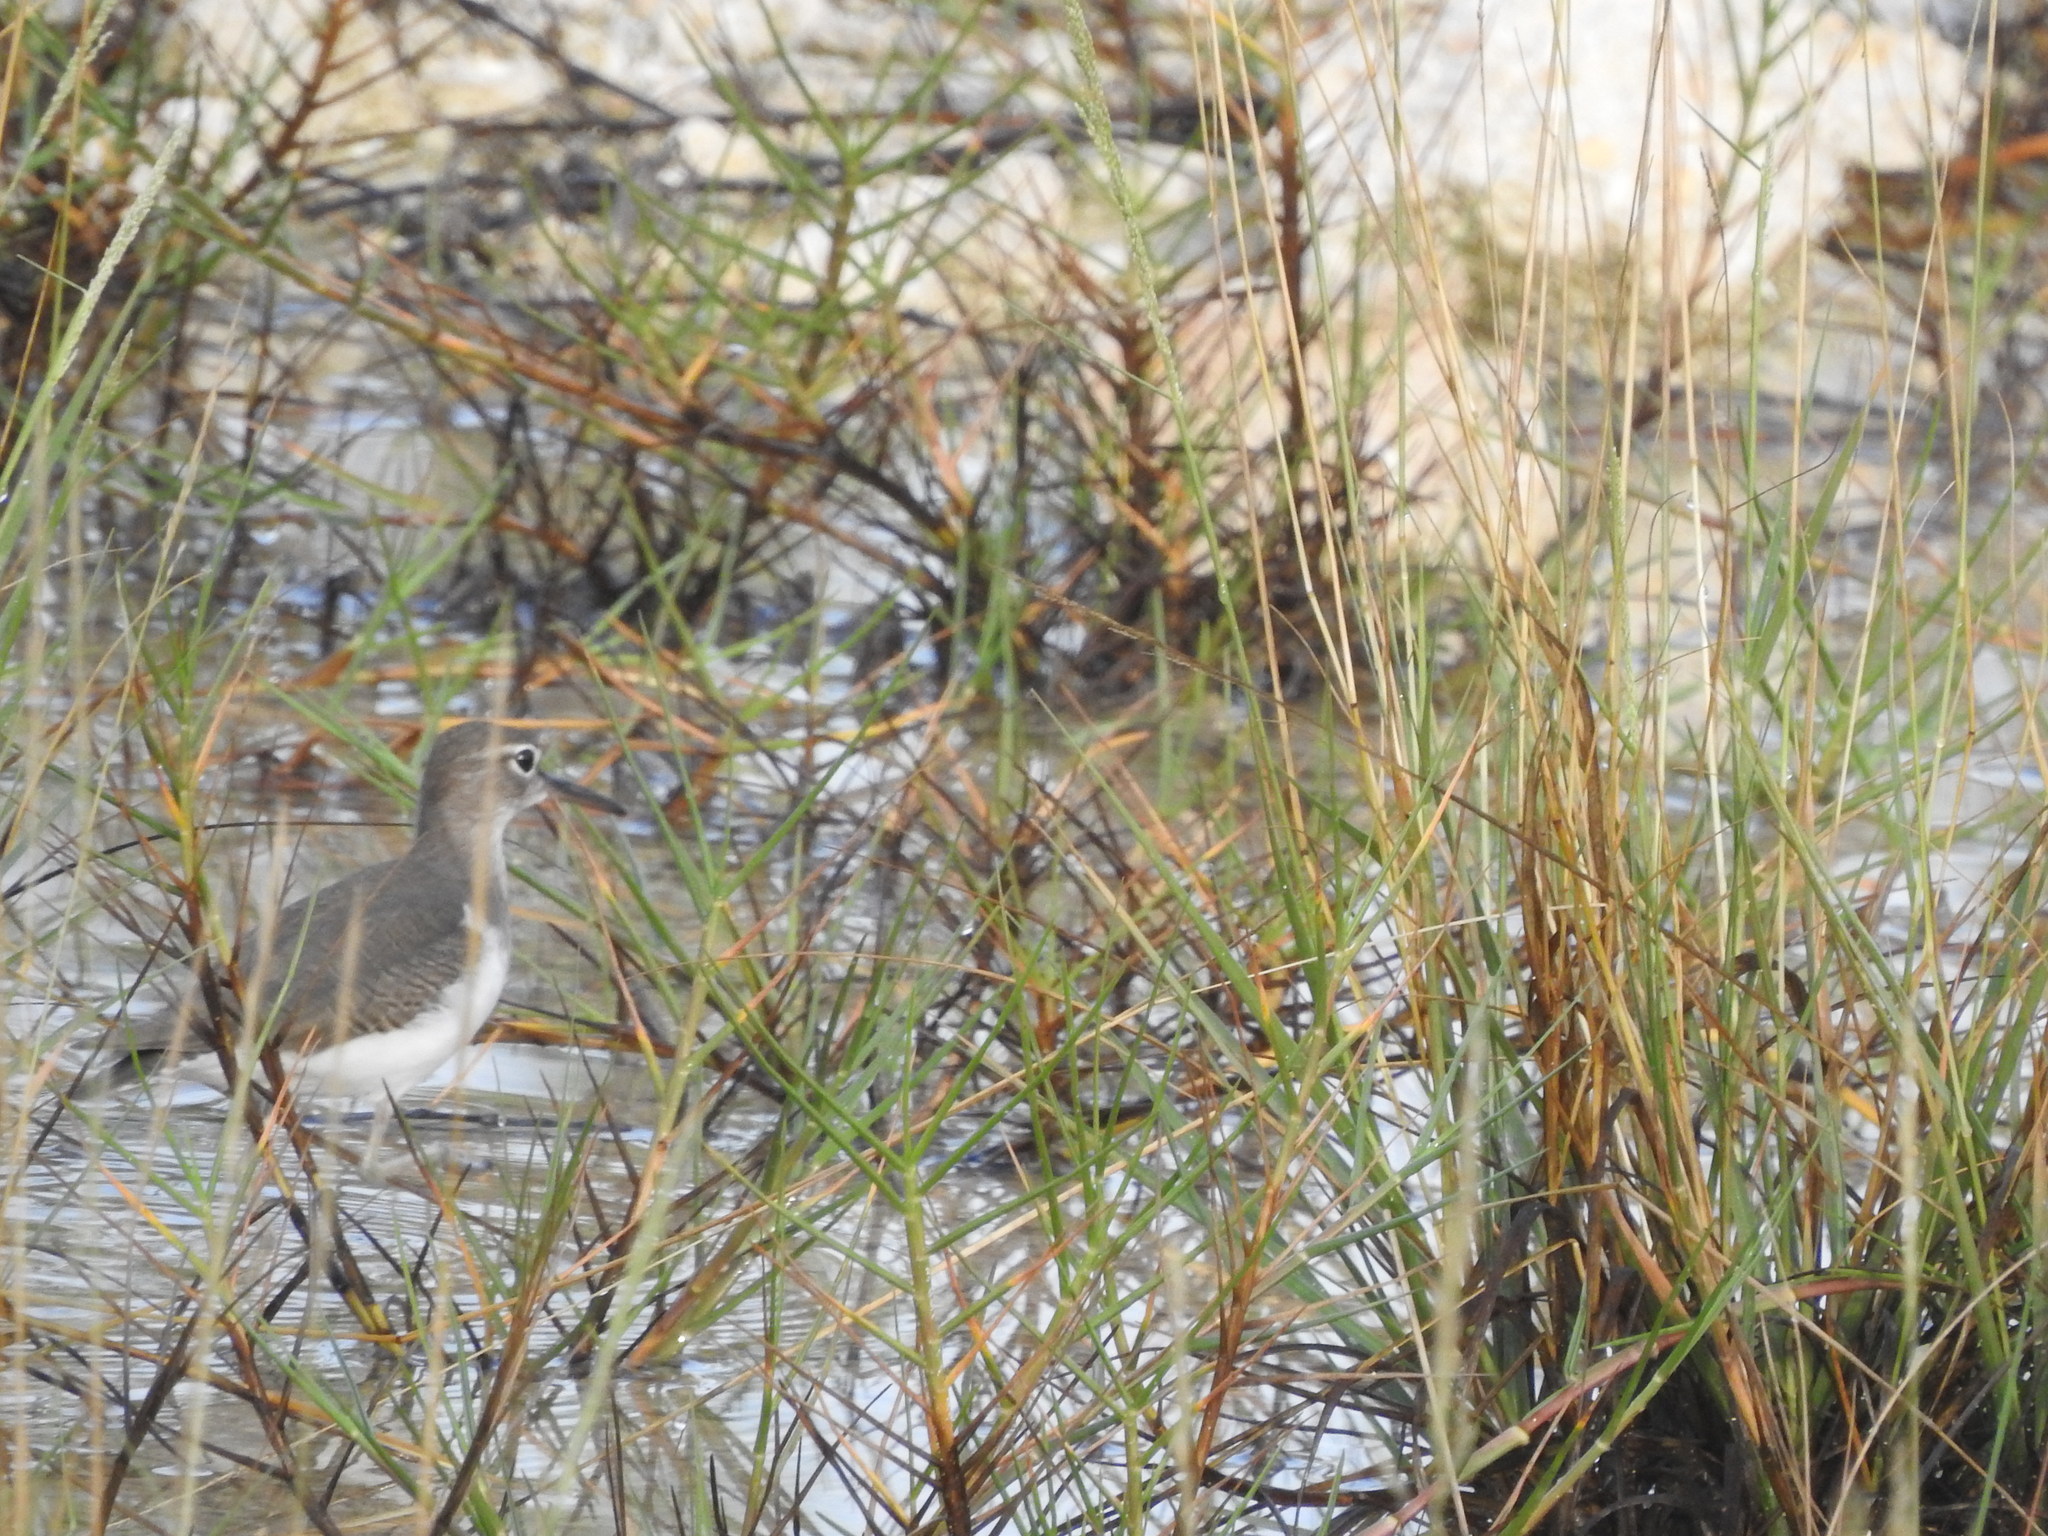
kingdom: Animalia
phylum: Chordata
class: Aves
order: Charadriiformes
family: Scolopacidae
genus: Actitis
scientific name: Actitis macularius
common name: Spotted sandpiper
